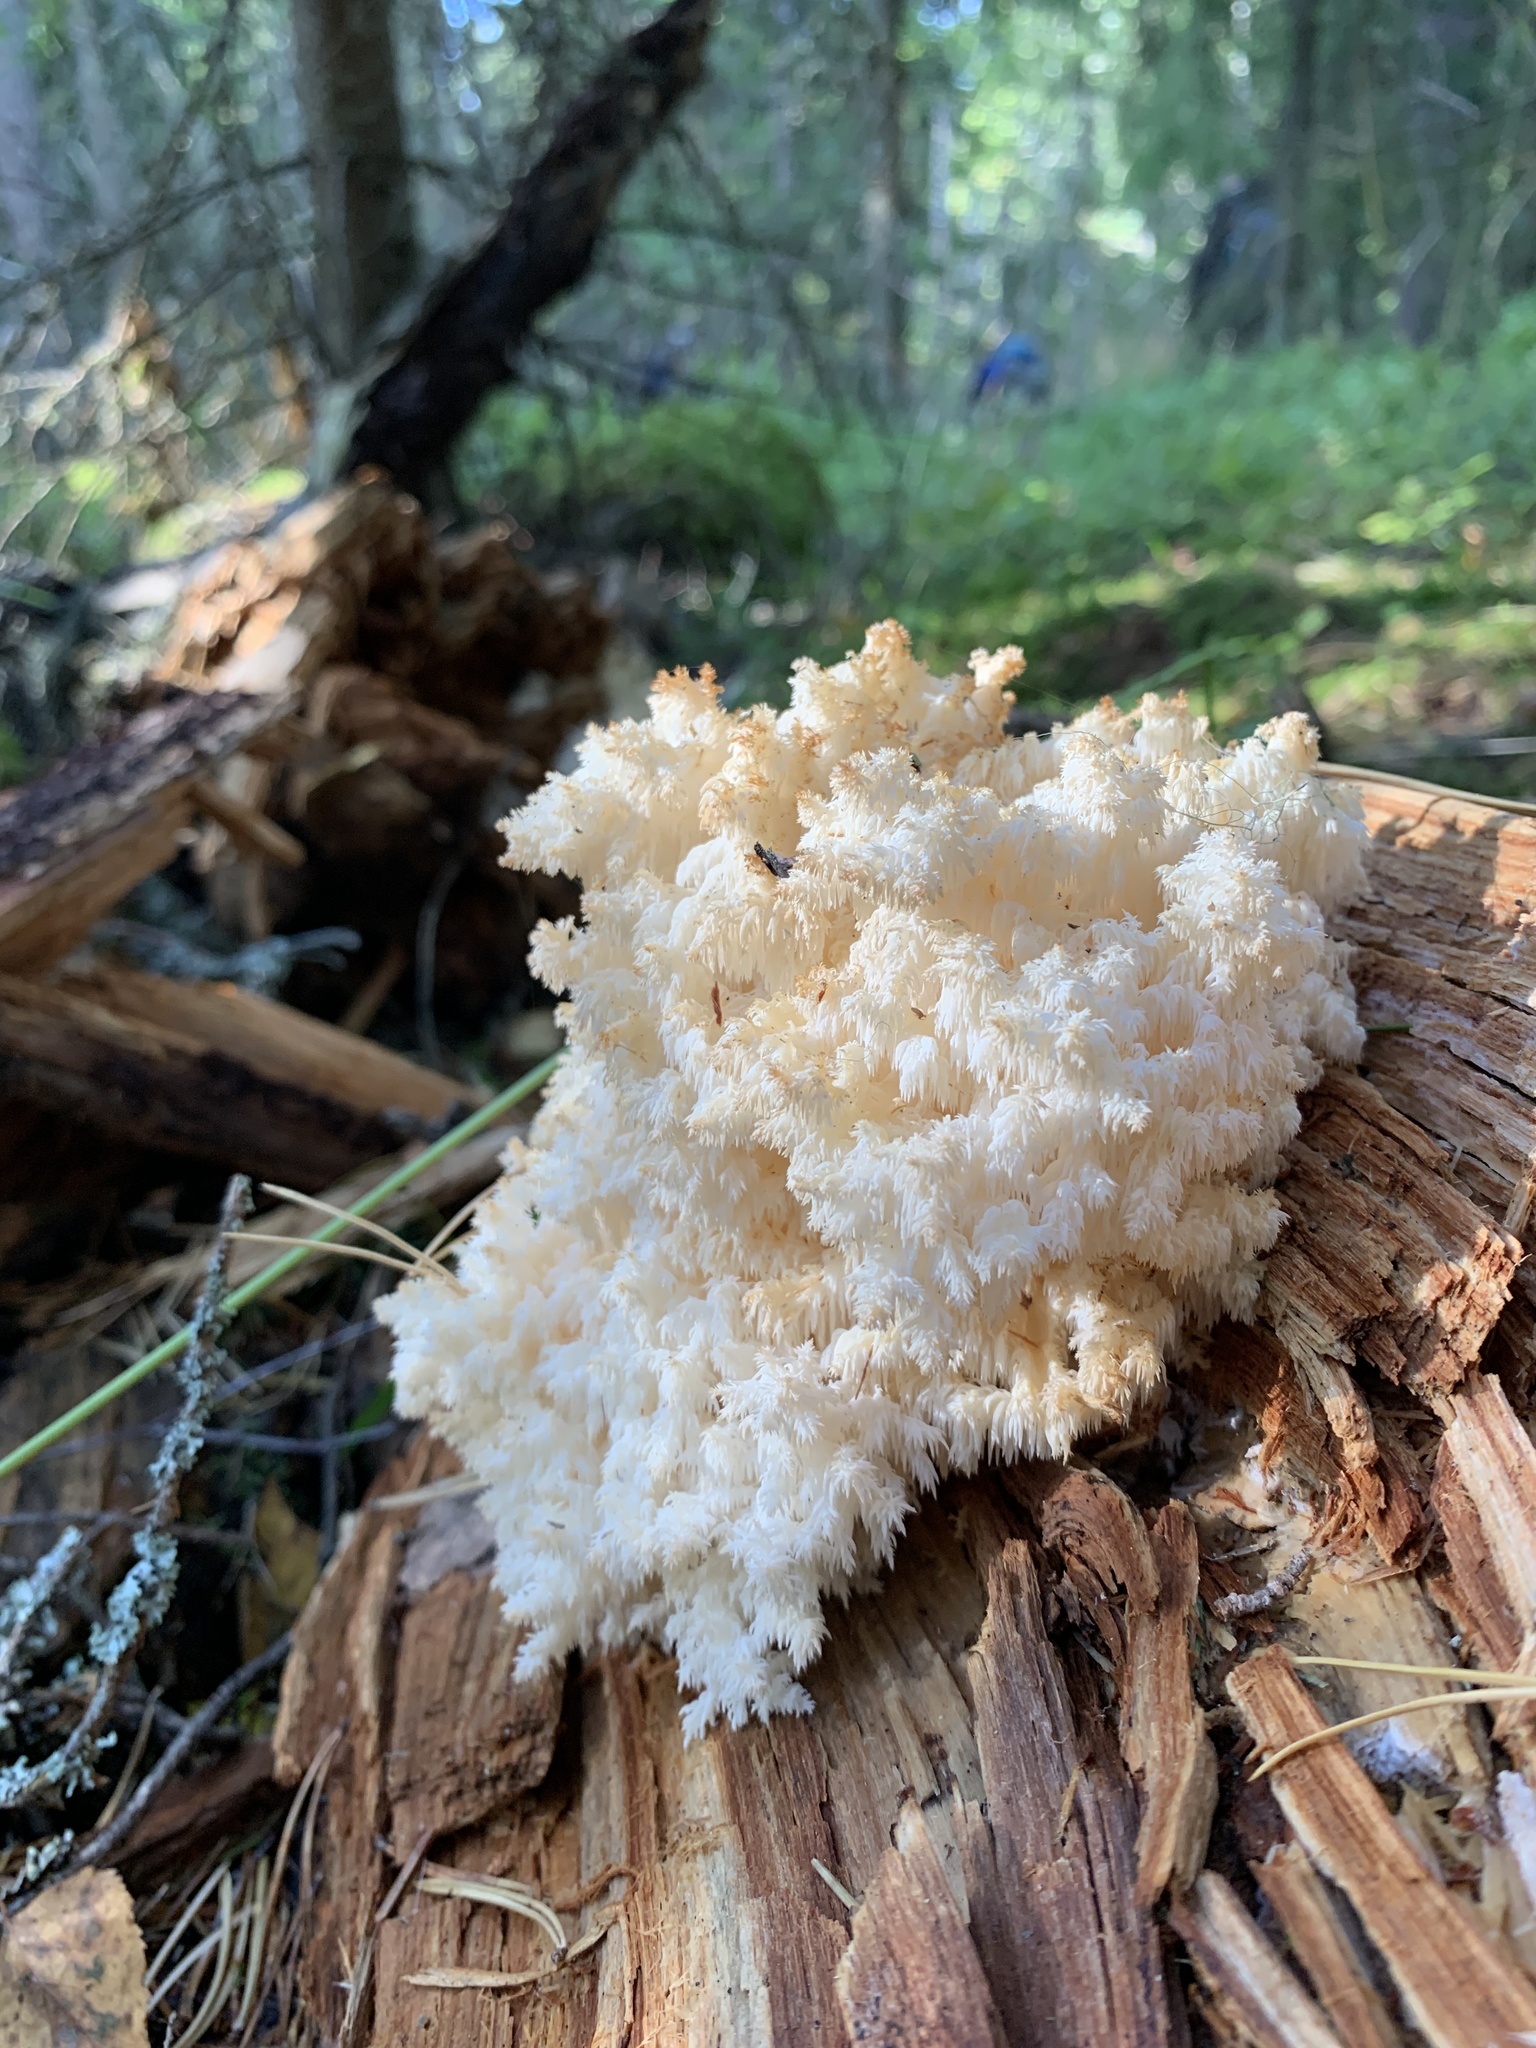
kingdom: Fungi
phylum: Basidiomycota
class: Agaricomycetes
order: Russulales
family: Hericiaceae
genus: Hericium
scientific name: Hericium coralloides
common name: Coral tooth
